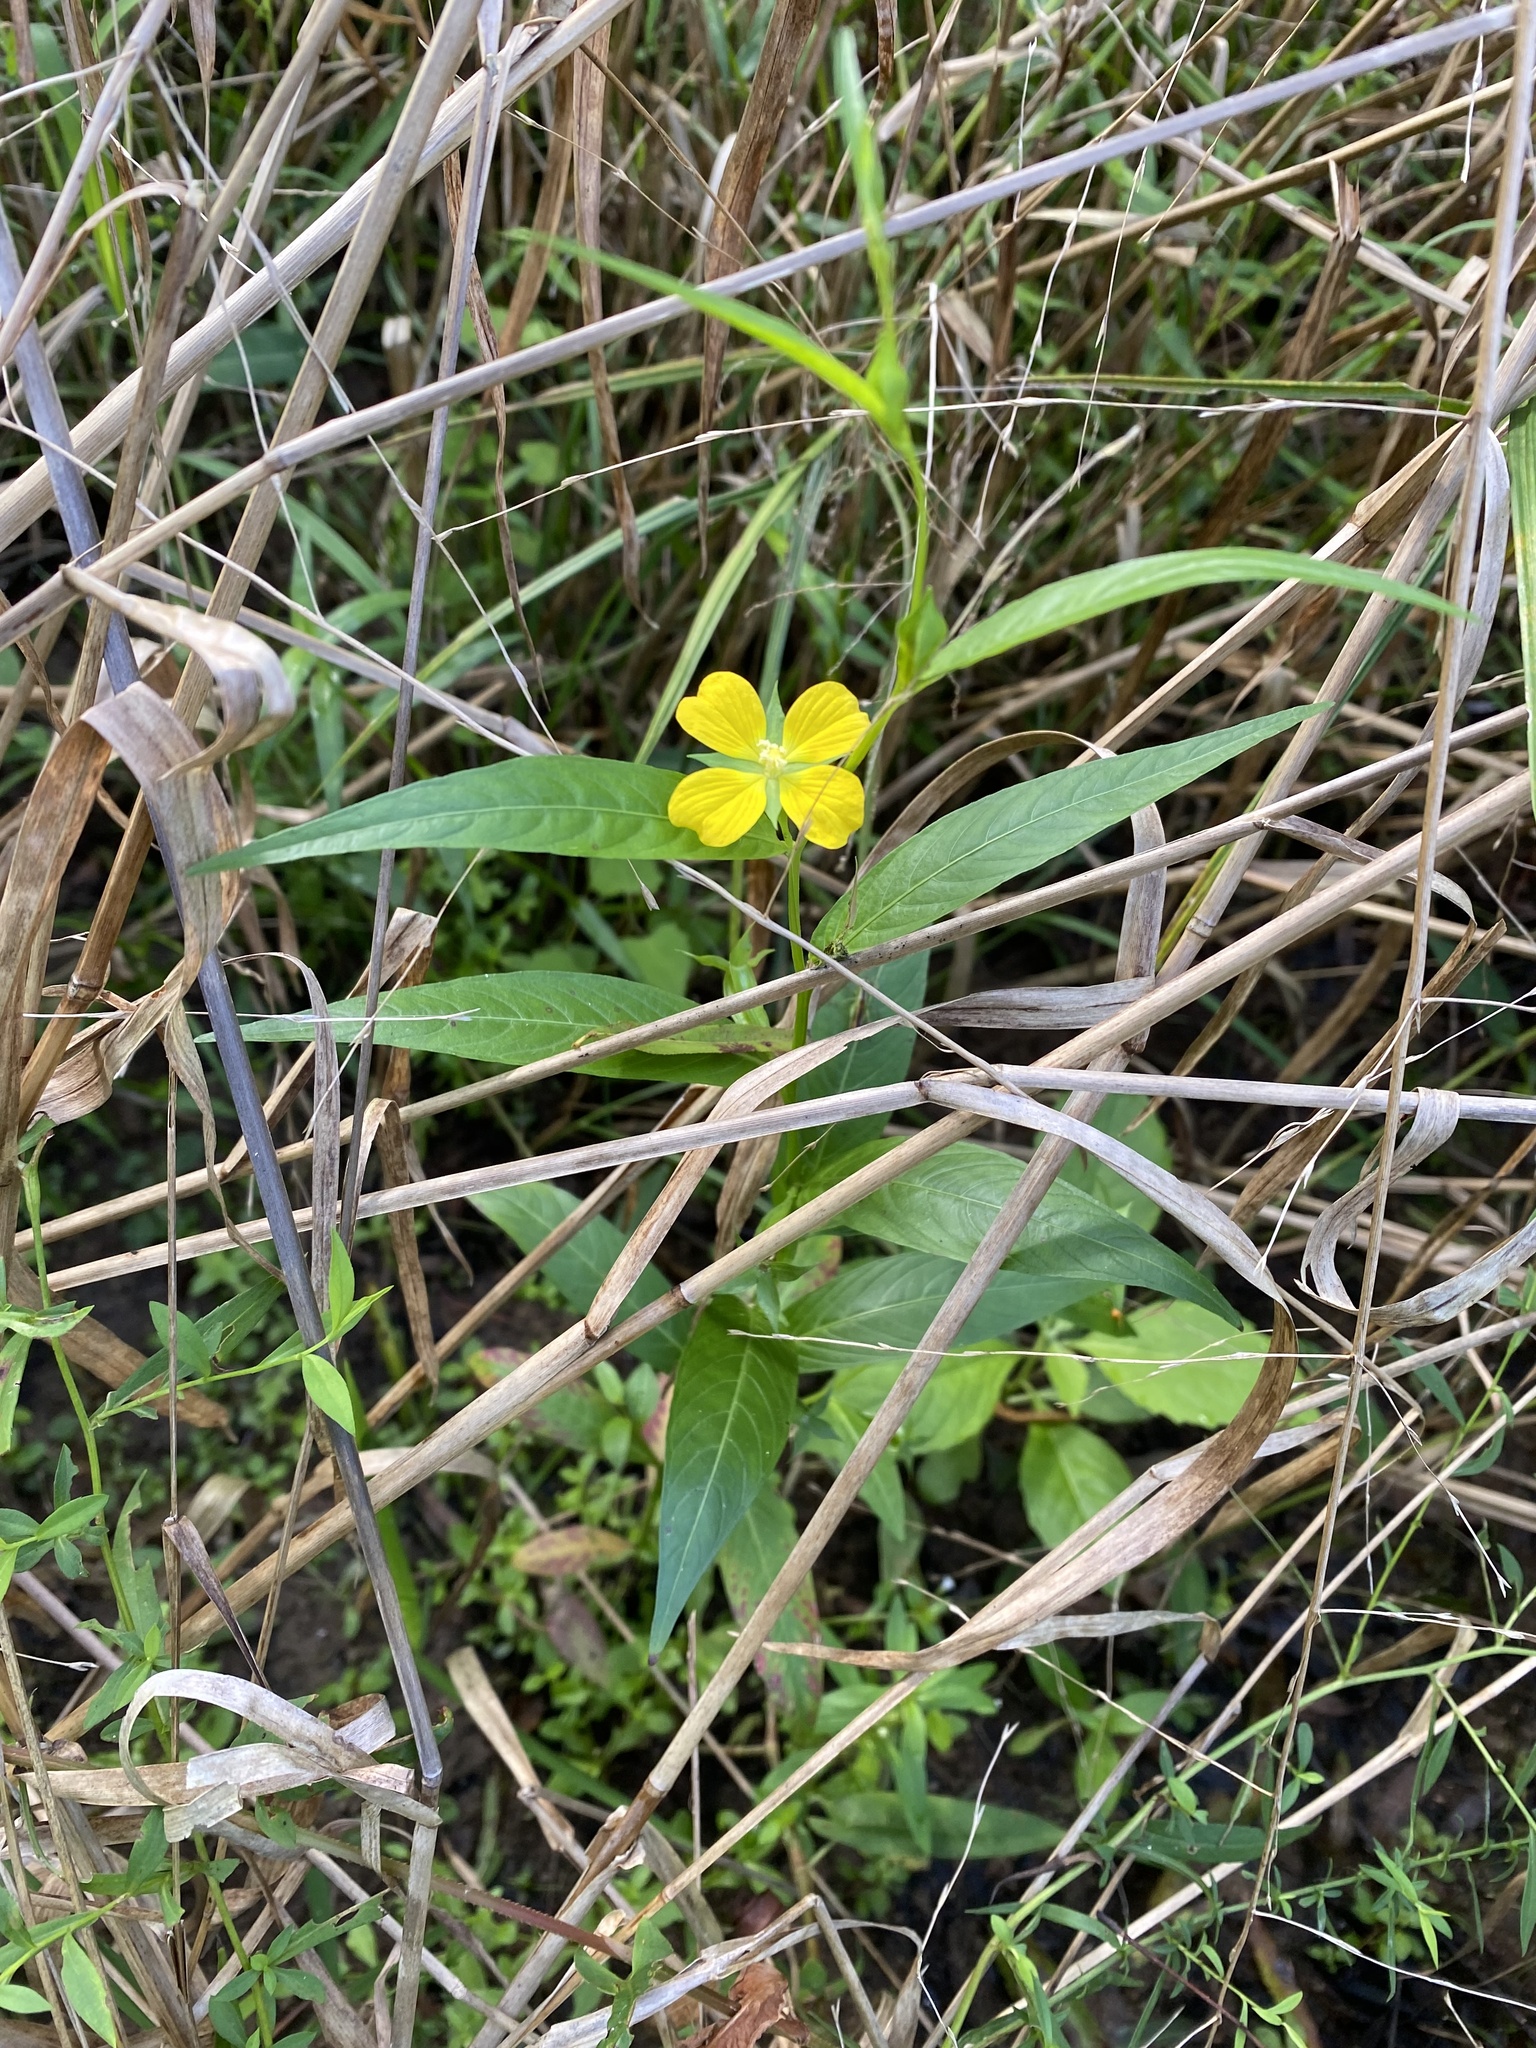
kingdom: Plantae
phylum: Tracheophyta
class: Magnoliopsida
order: Myrtales
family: Onagraceae
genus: Ludwigia
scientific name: Ludwigia decurrens
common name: Winged water-primrose
